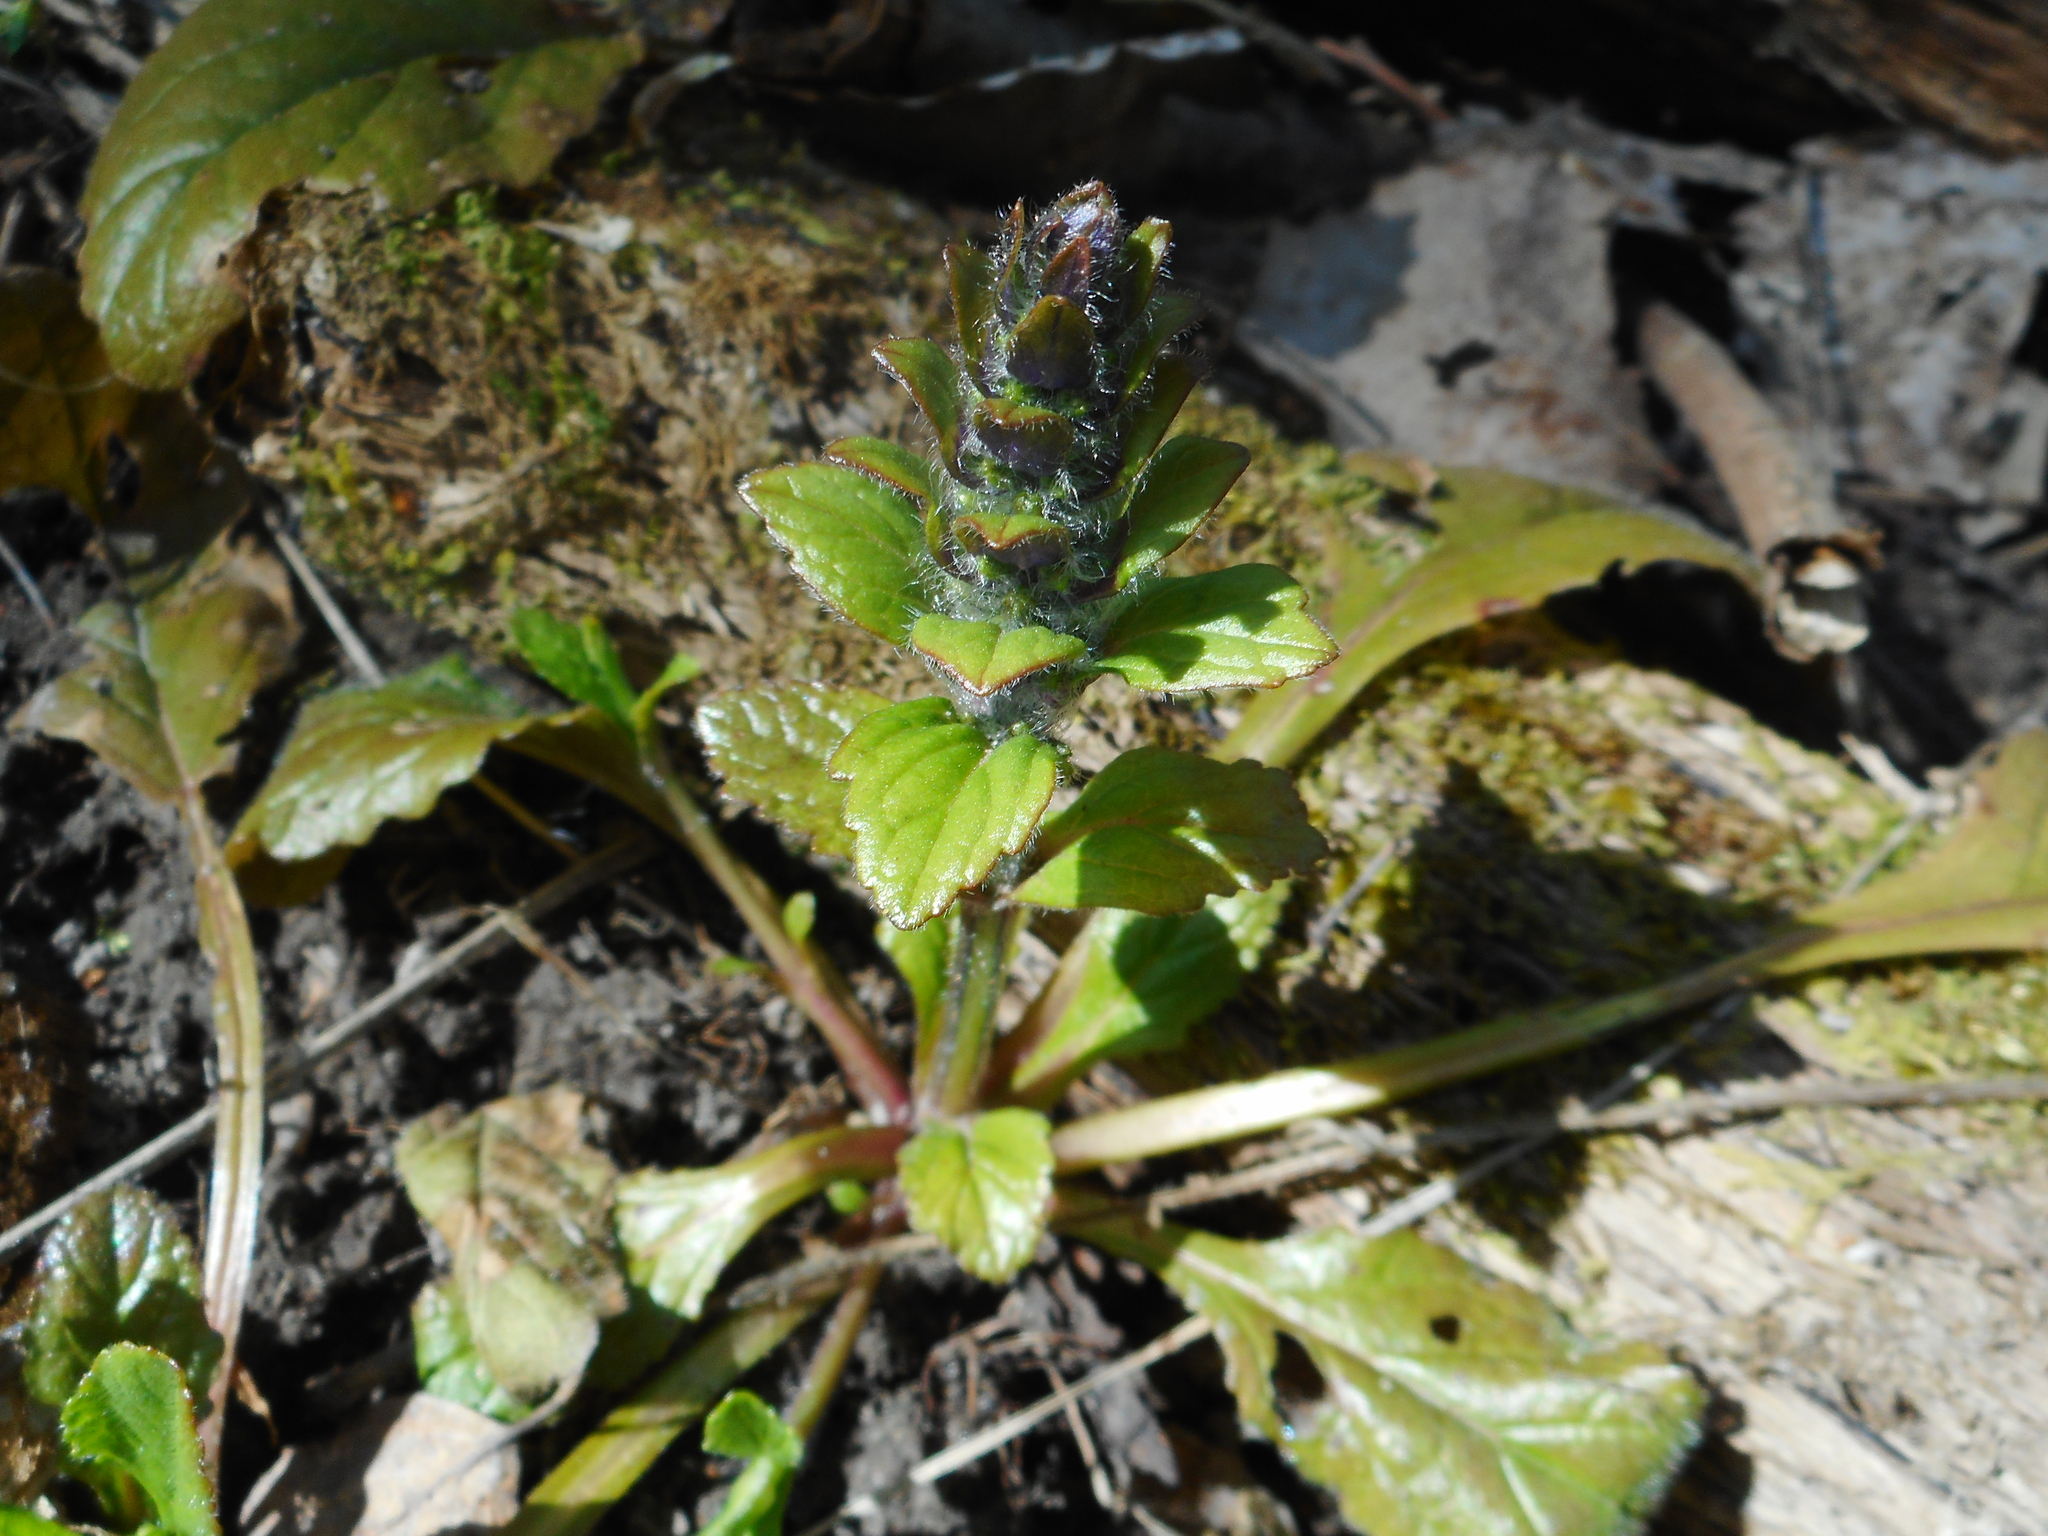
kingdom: Plantae
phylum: Tracheophyta
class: Magnoliopsida
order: Lamiales
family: Lamiaceae
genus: Ajuga
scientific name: Ajuga reptans
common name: Bugle
